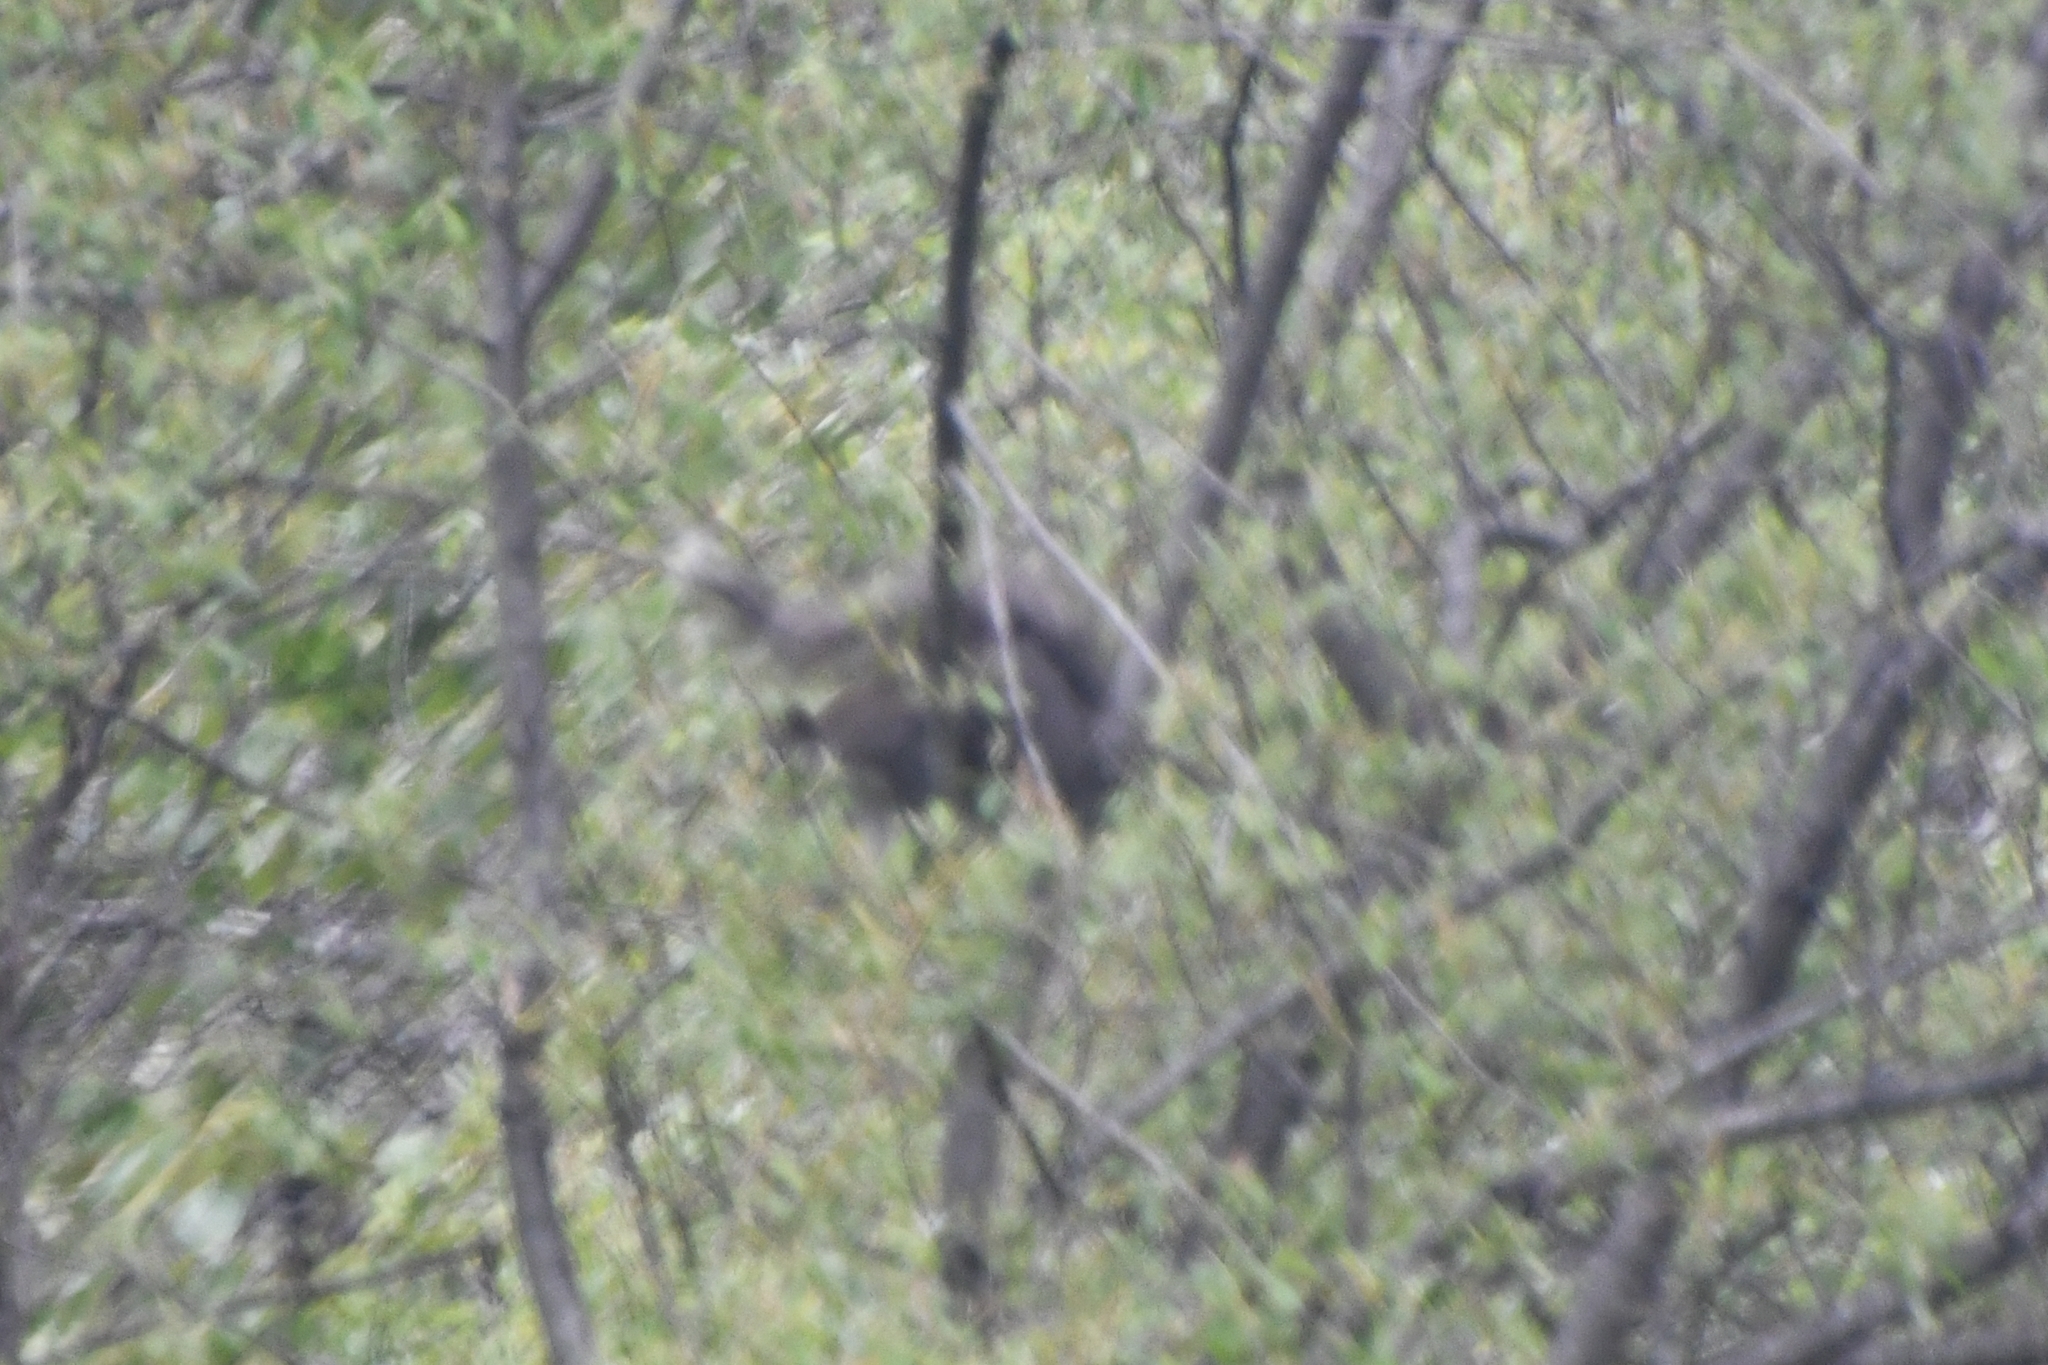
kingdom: Animalia
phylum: Chordata
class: Mammalia
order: Rodentia
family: Sciuridae
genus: Sciurus
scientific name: Sciurus griseus
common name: Western gray squirrel
